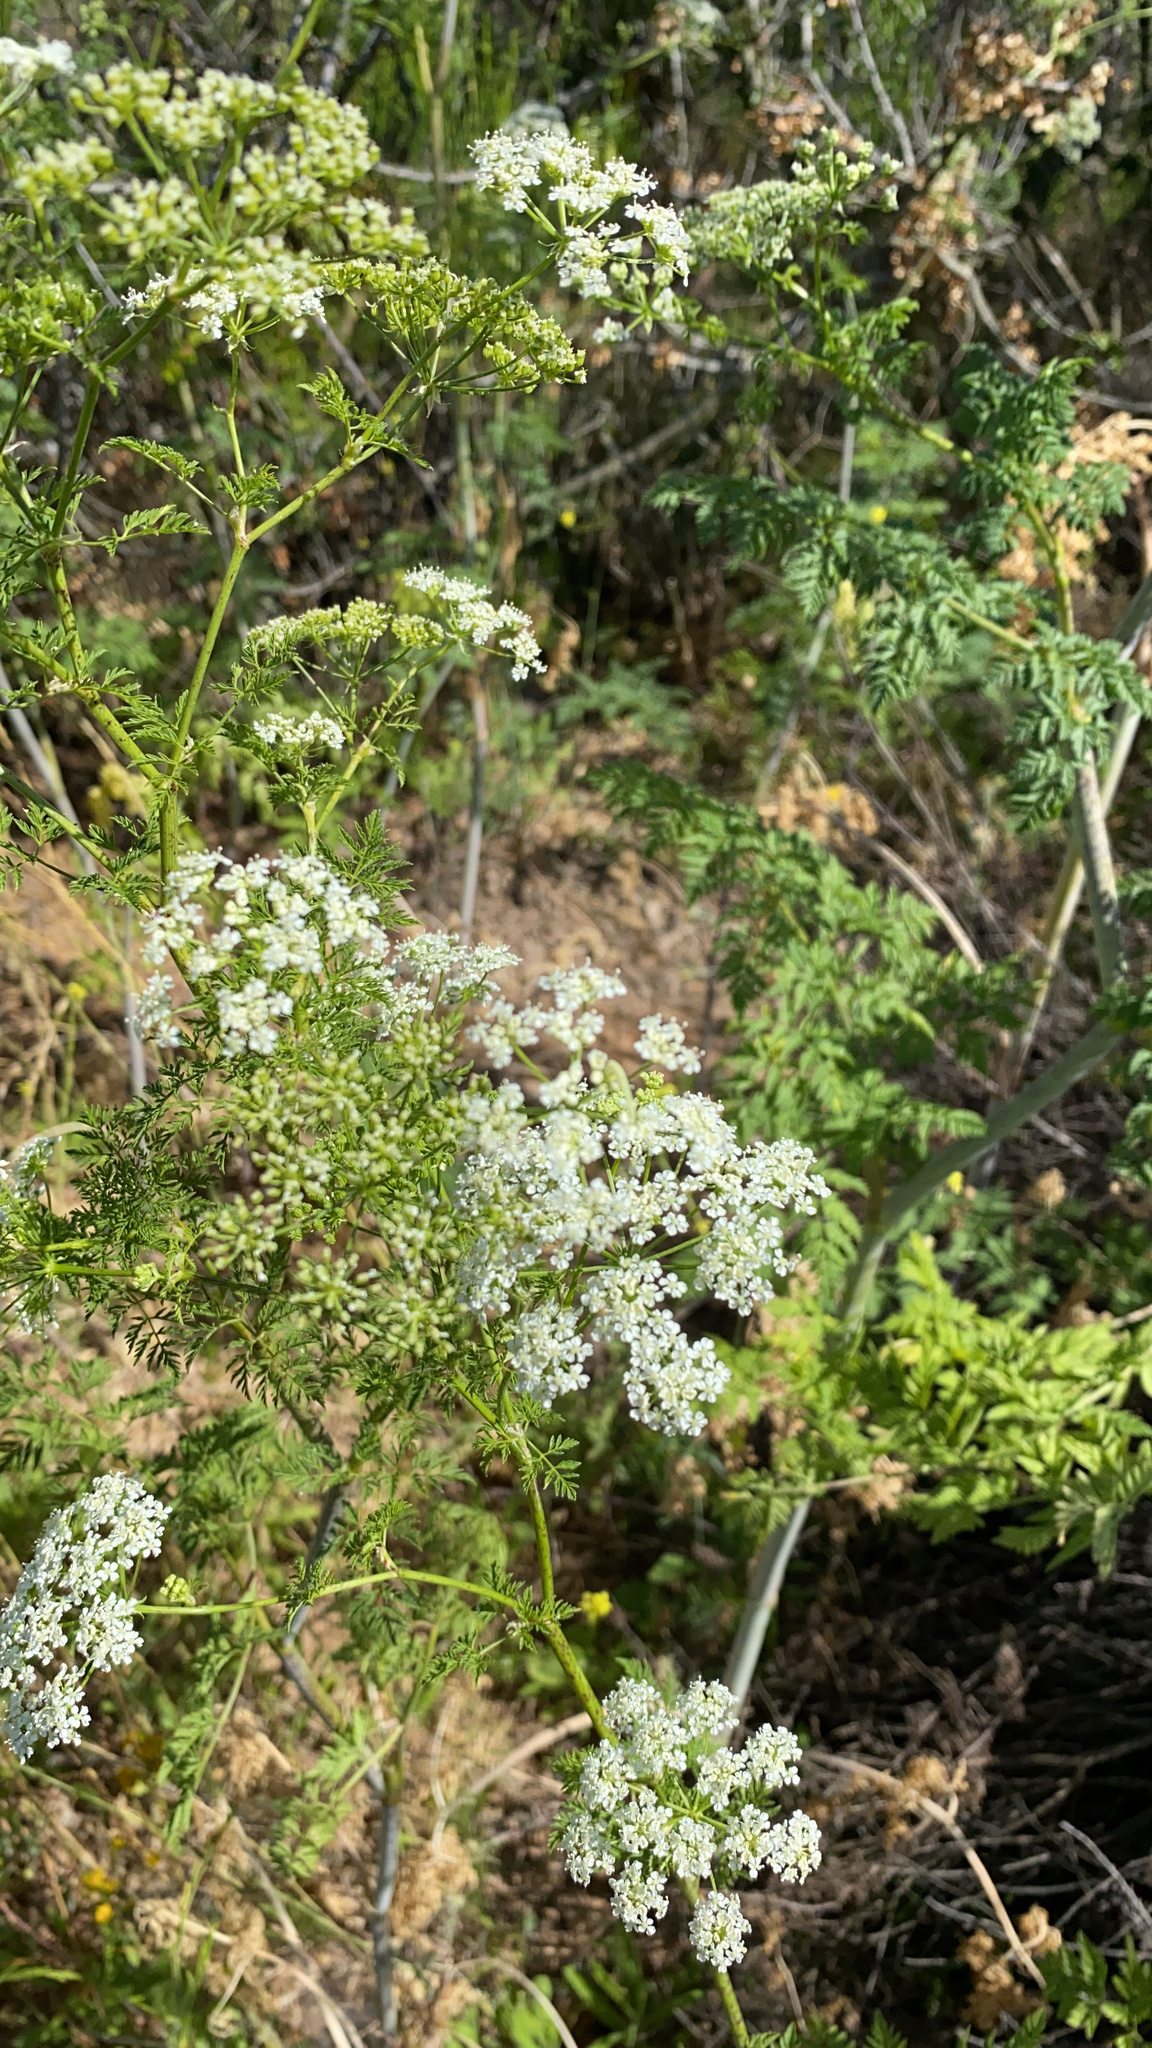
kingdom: Plantae
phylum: Tracheophyta
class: Magnoliopsida
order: Apiales
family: Apiaceae
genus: Conium
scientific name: Conium maculatum
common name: Hemlock
